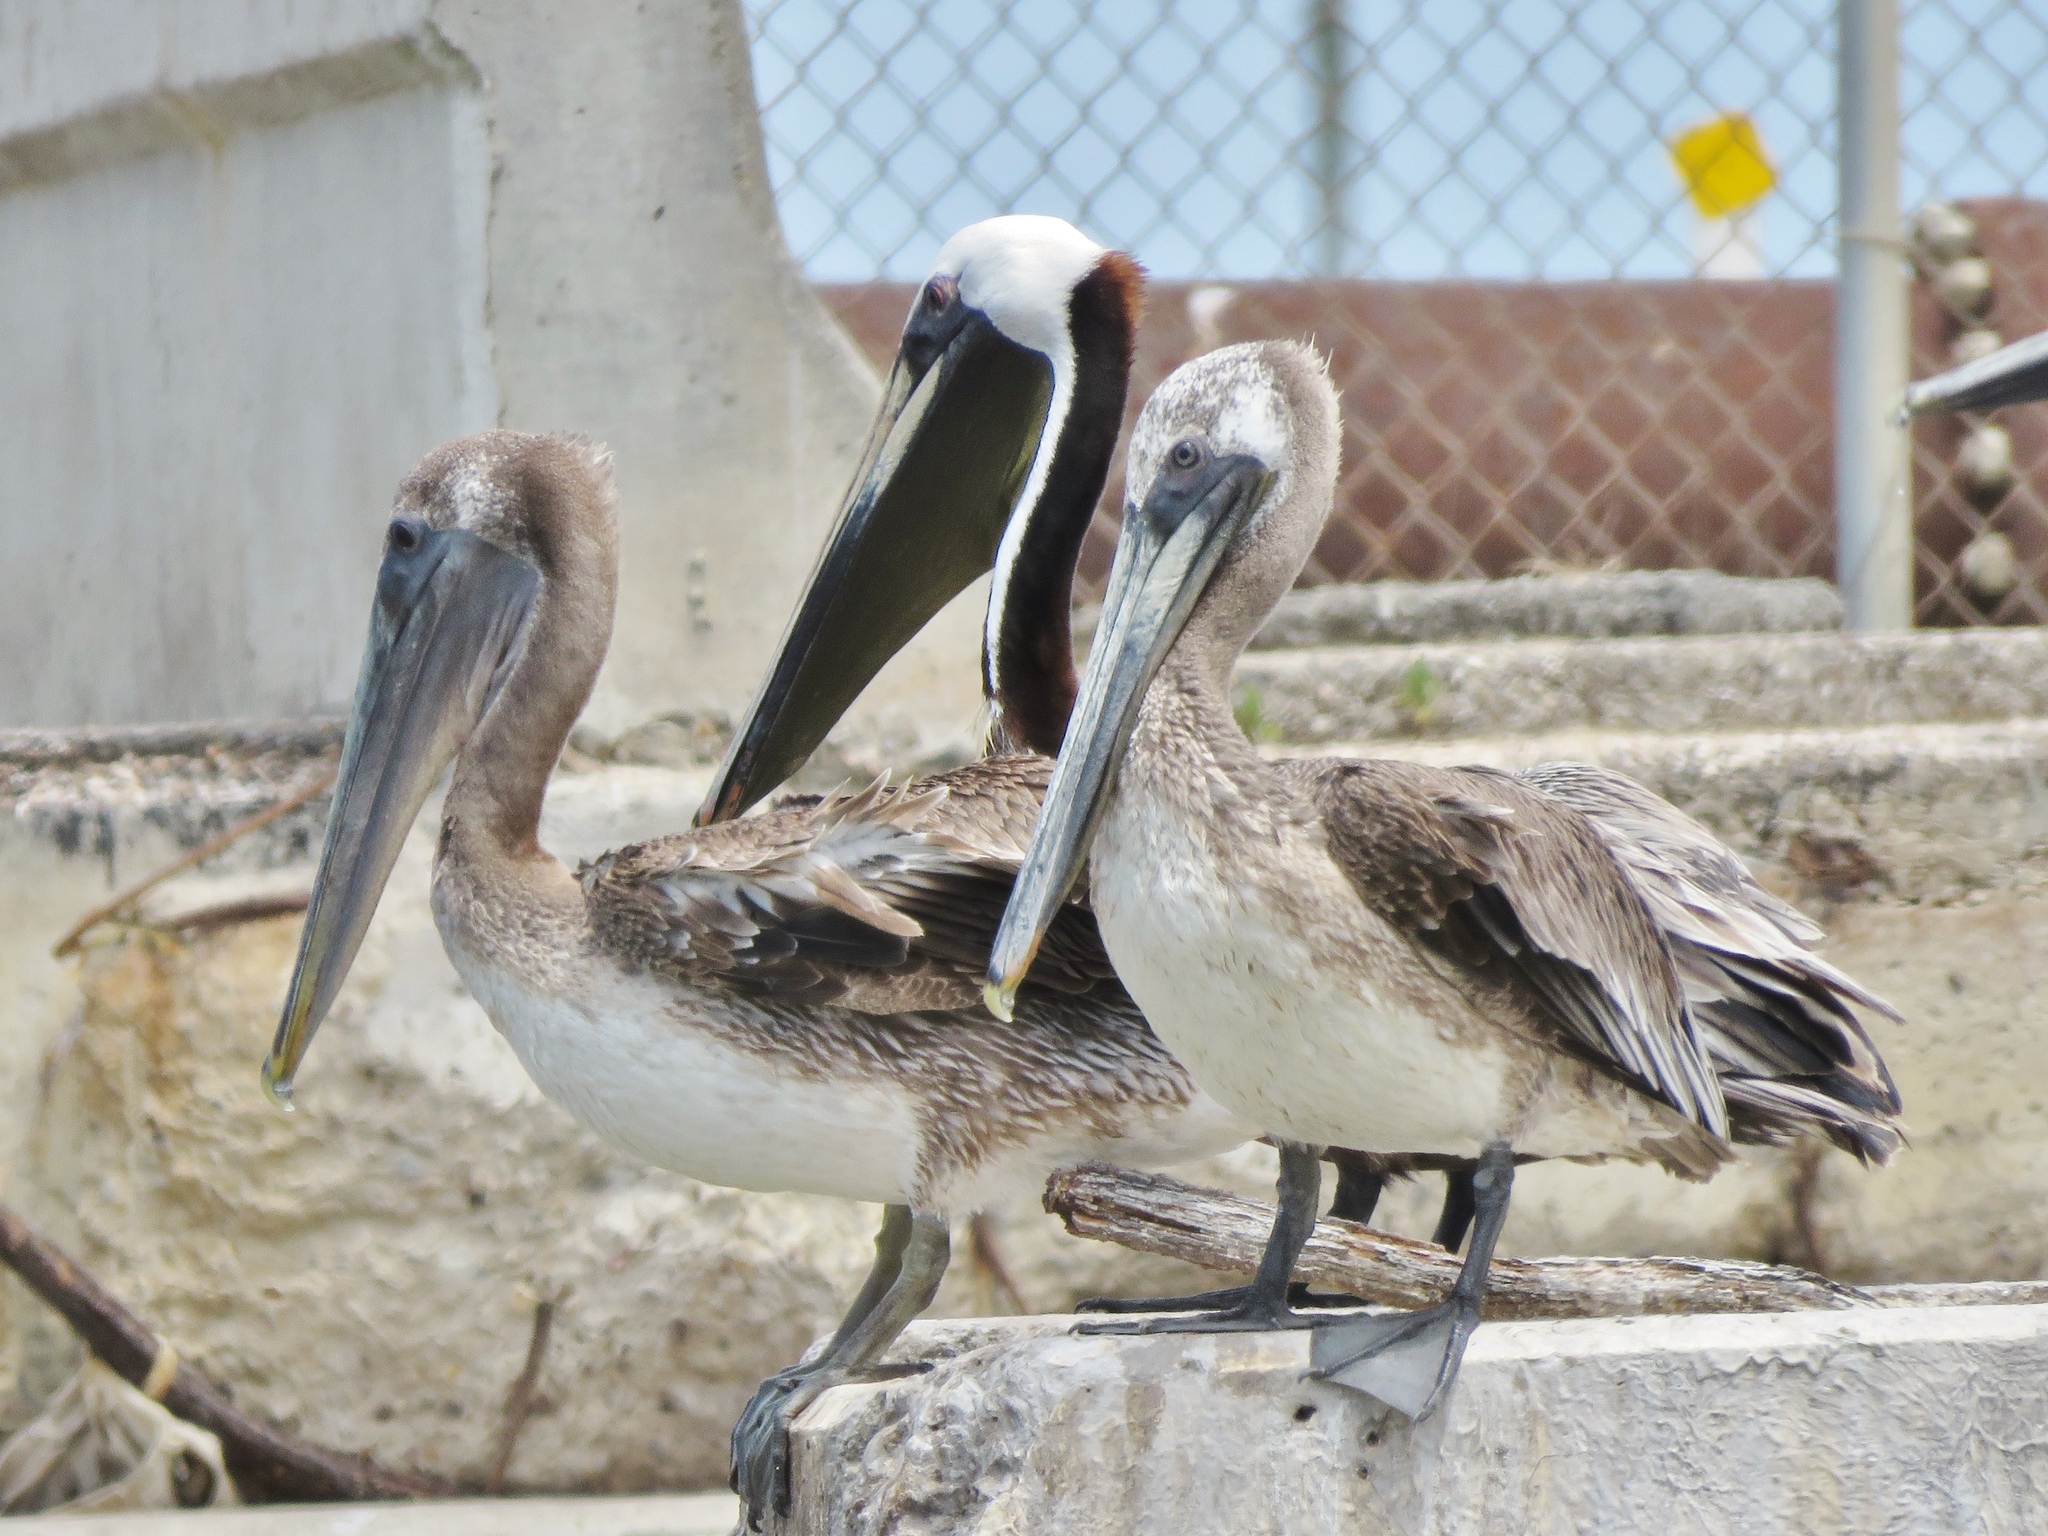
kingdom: Animalia
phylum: Chordata
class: Aves
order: Pelecaniformes
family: Pelecanidae
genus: Pelecanus
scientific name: Pelecanus occidentalis
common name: Brown pelican
